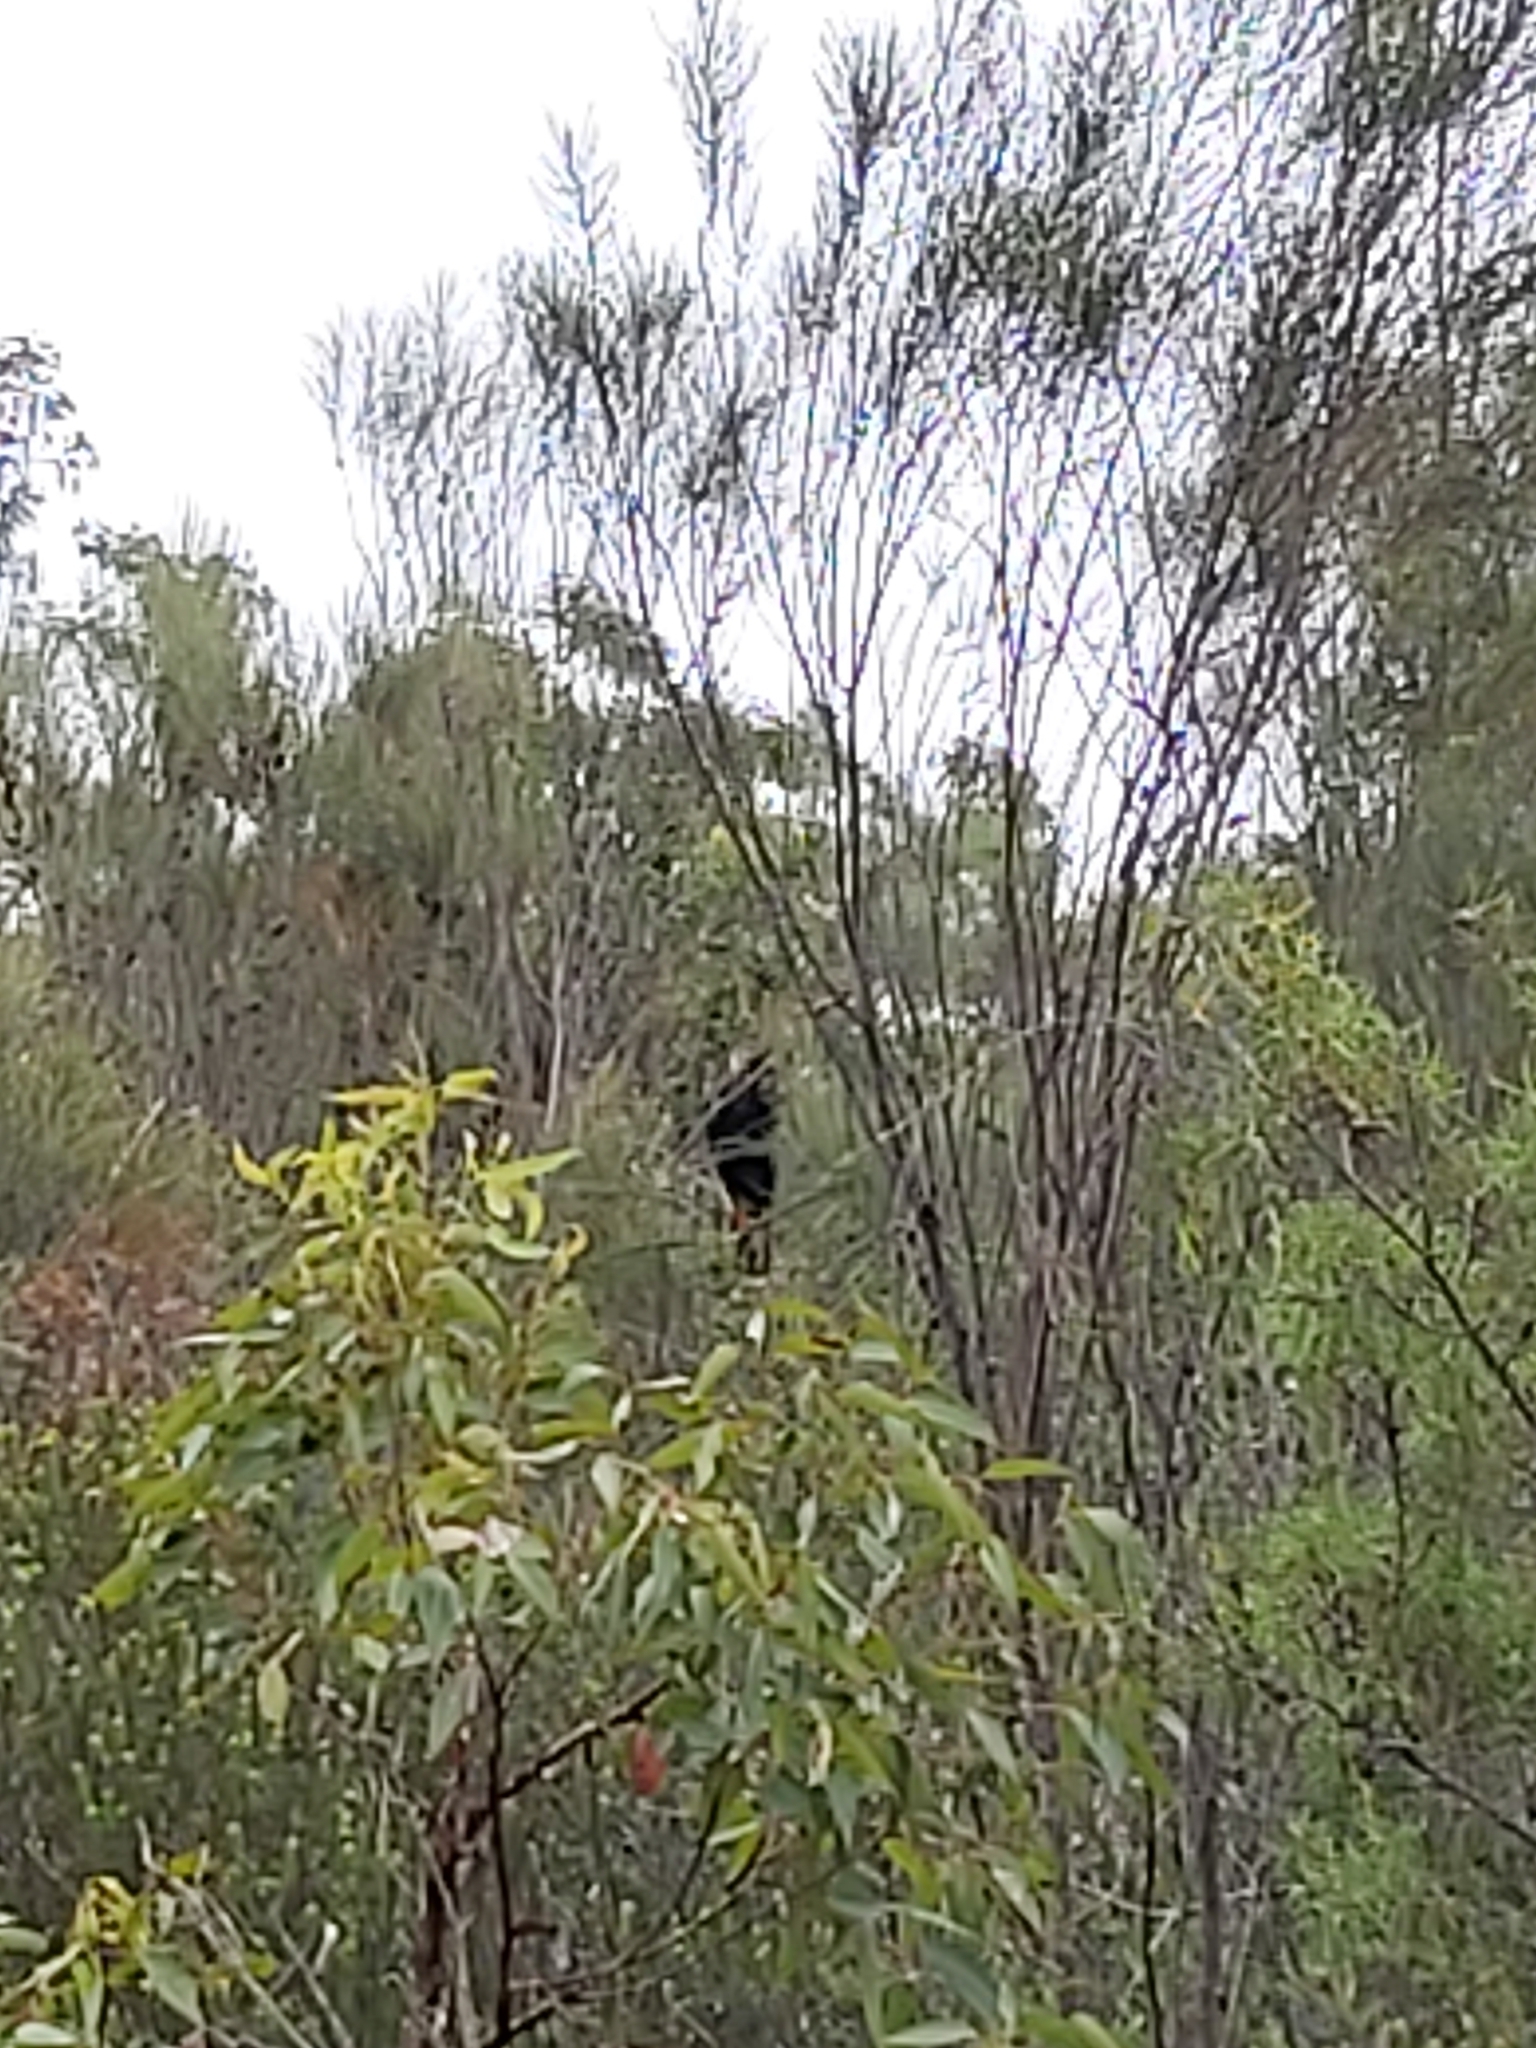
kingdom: Animalia
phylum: Chordata
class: Aves
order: Psittaciformes
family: Psittacidae
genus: Calyptorhynchus
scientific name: Calyptorhynchus lathami
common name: Glossy black cockatoo
